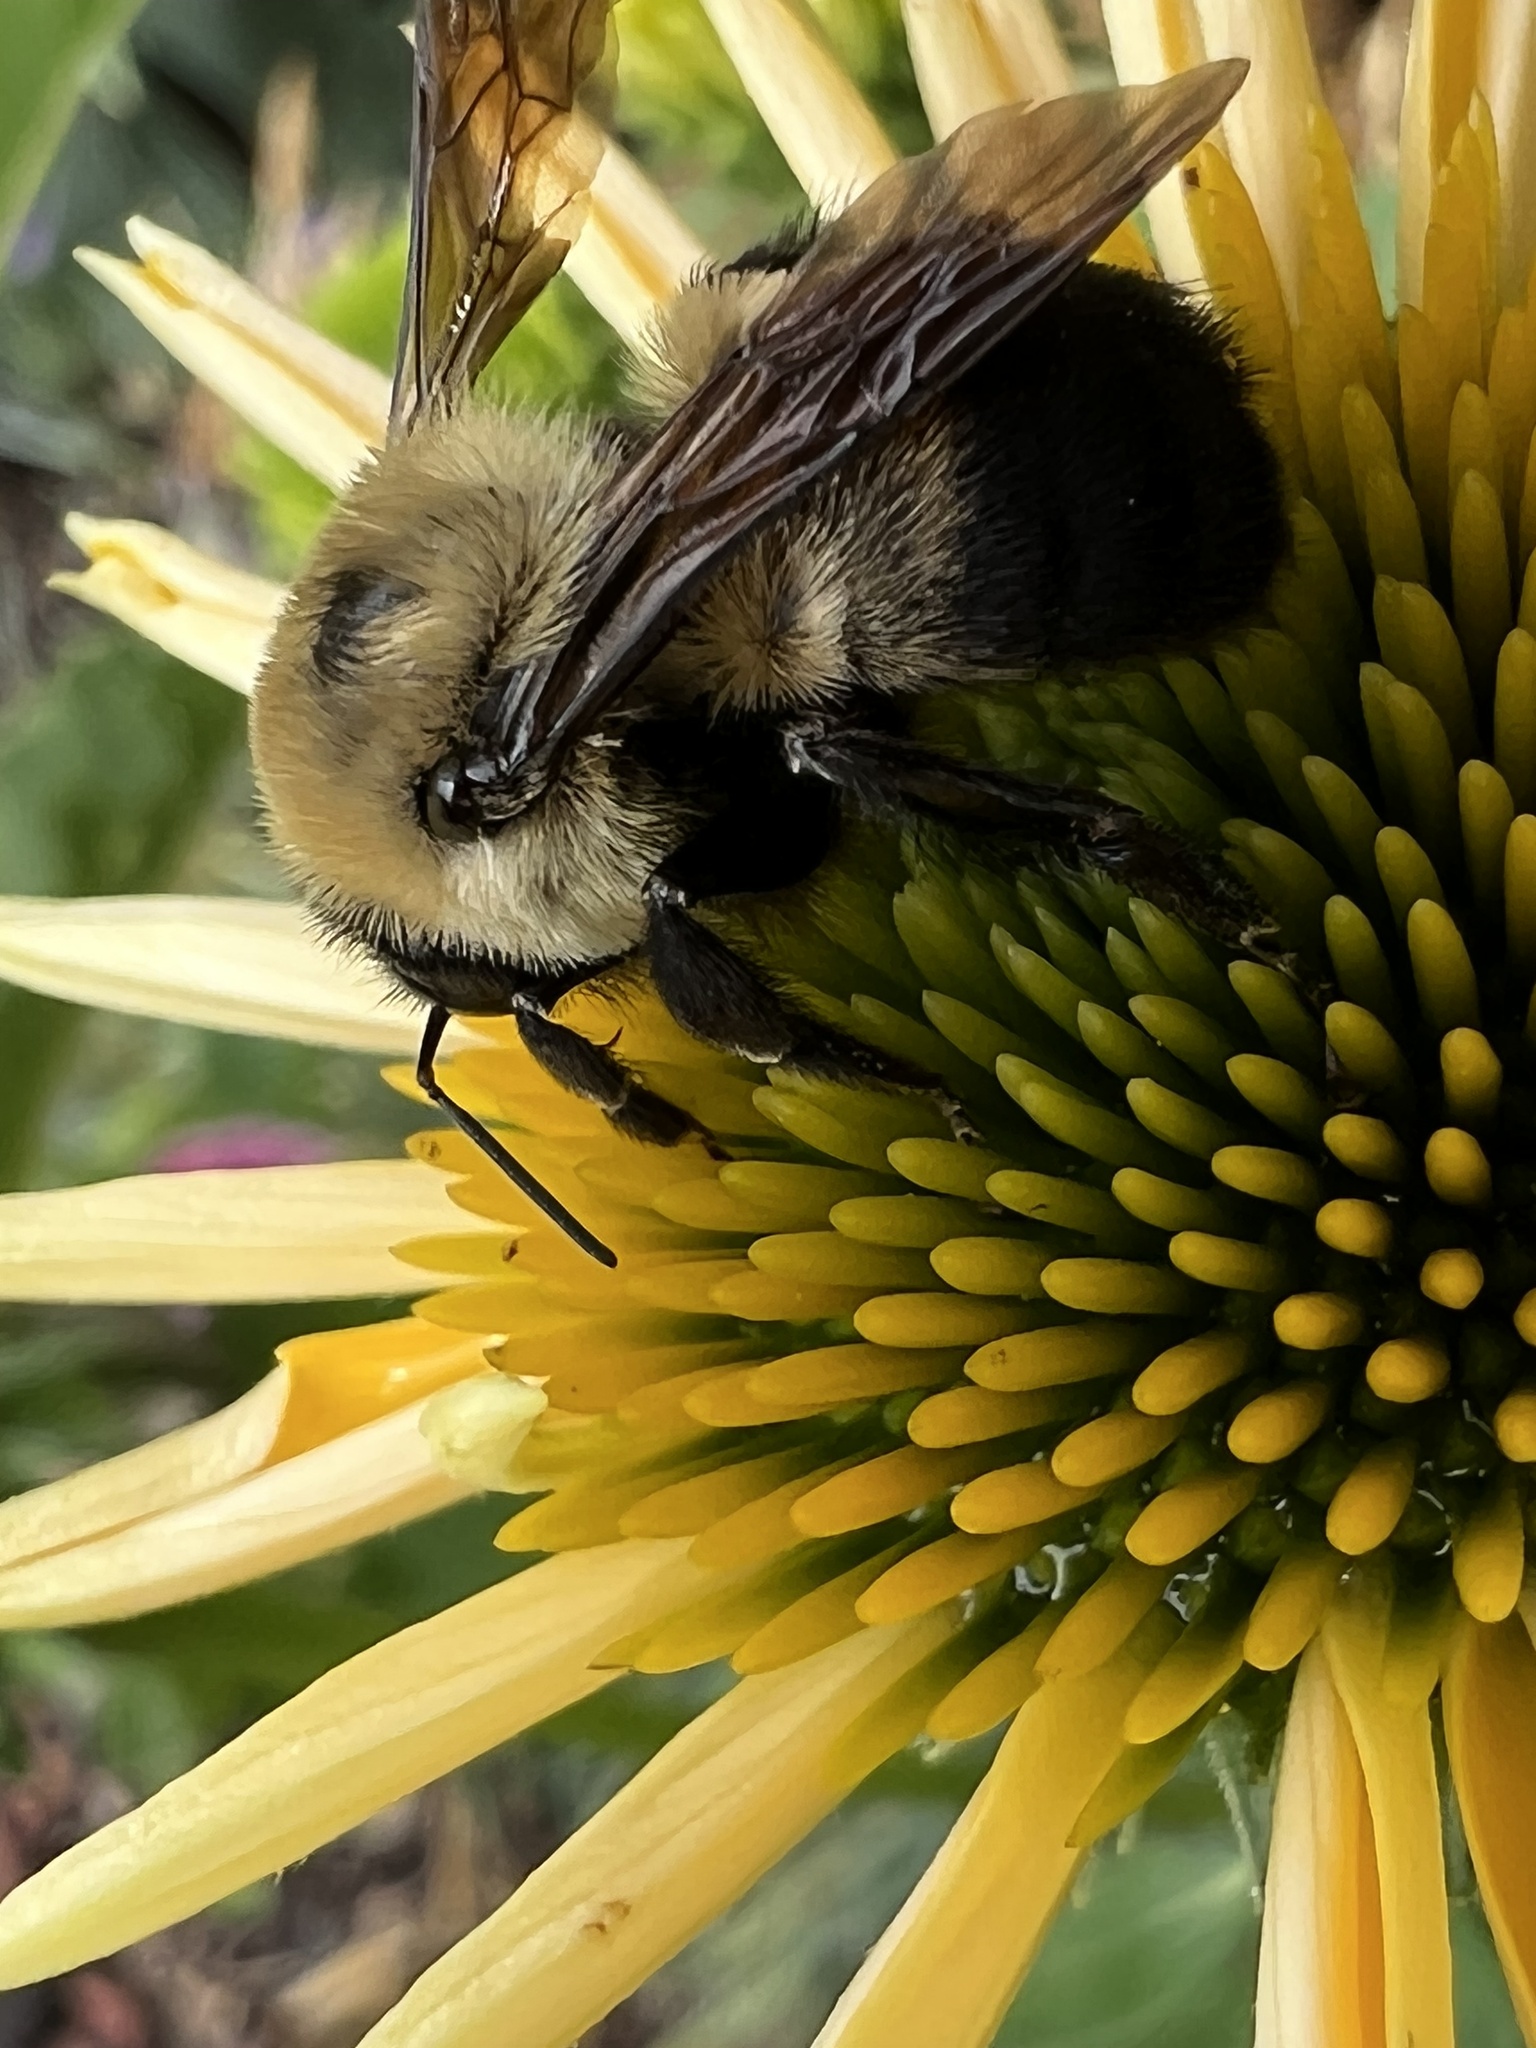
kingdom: Animalia
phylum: Arthropoda
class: Insecta
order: Hymenoptera
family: Apidae
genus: Bombus
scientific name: Bombus griseocollis
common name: Brown-belted bumble bee
